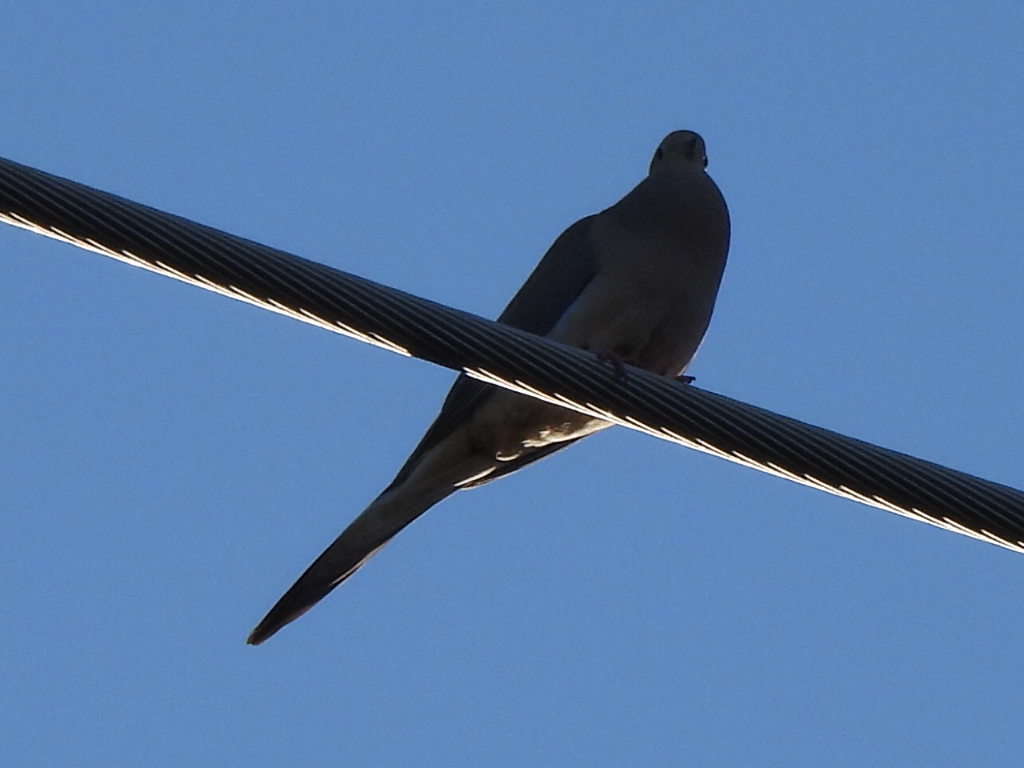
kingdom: Animalia
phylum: Chordata
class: Aves
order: Columbiformes
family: Columbidae
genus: Zenaida
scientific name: Zenaida macroura
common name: Mourning dove
